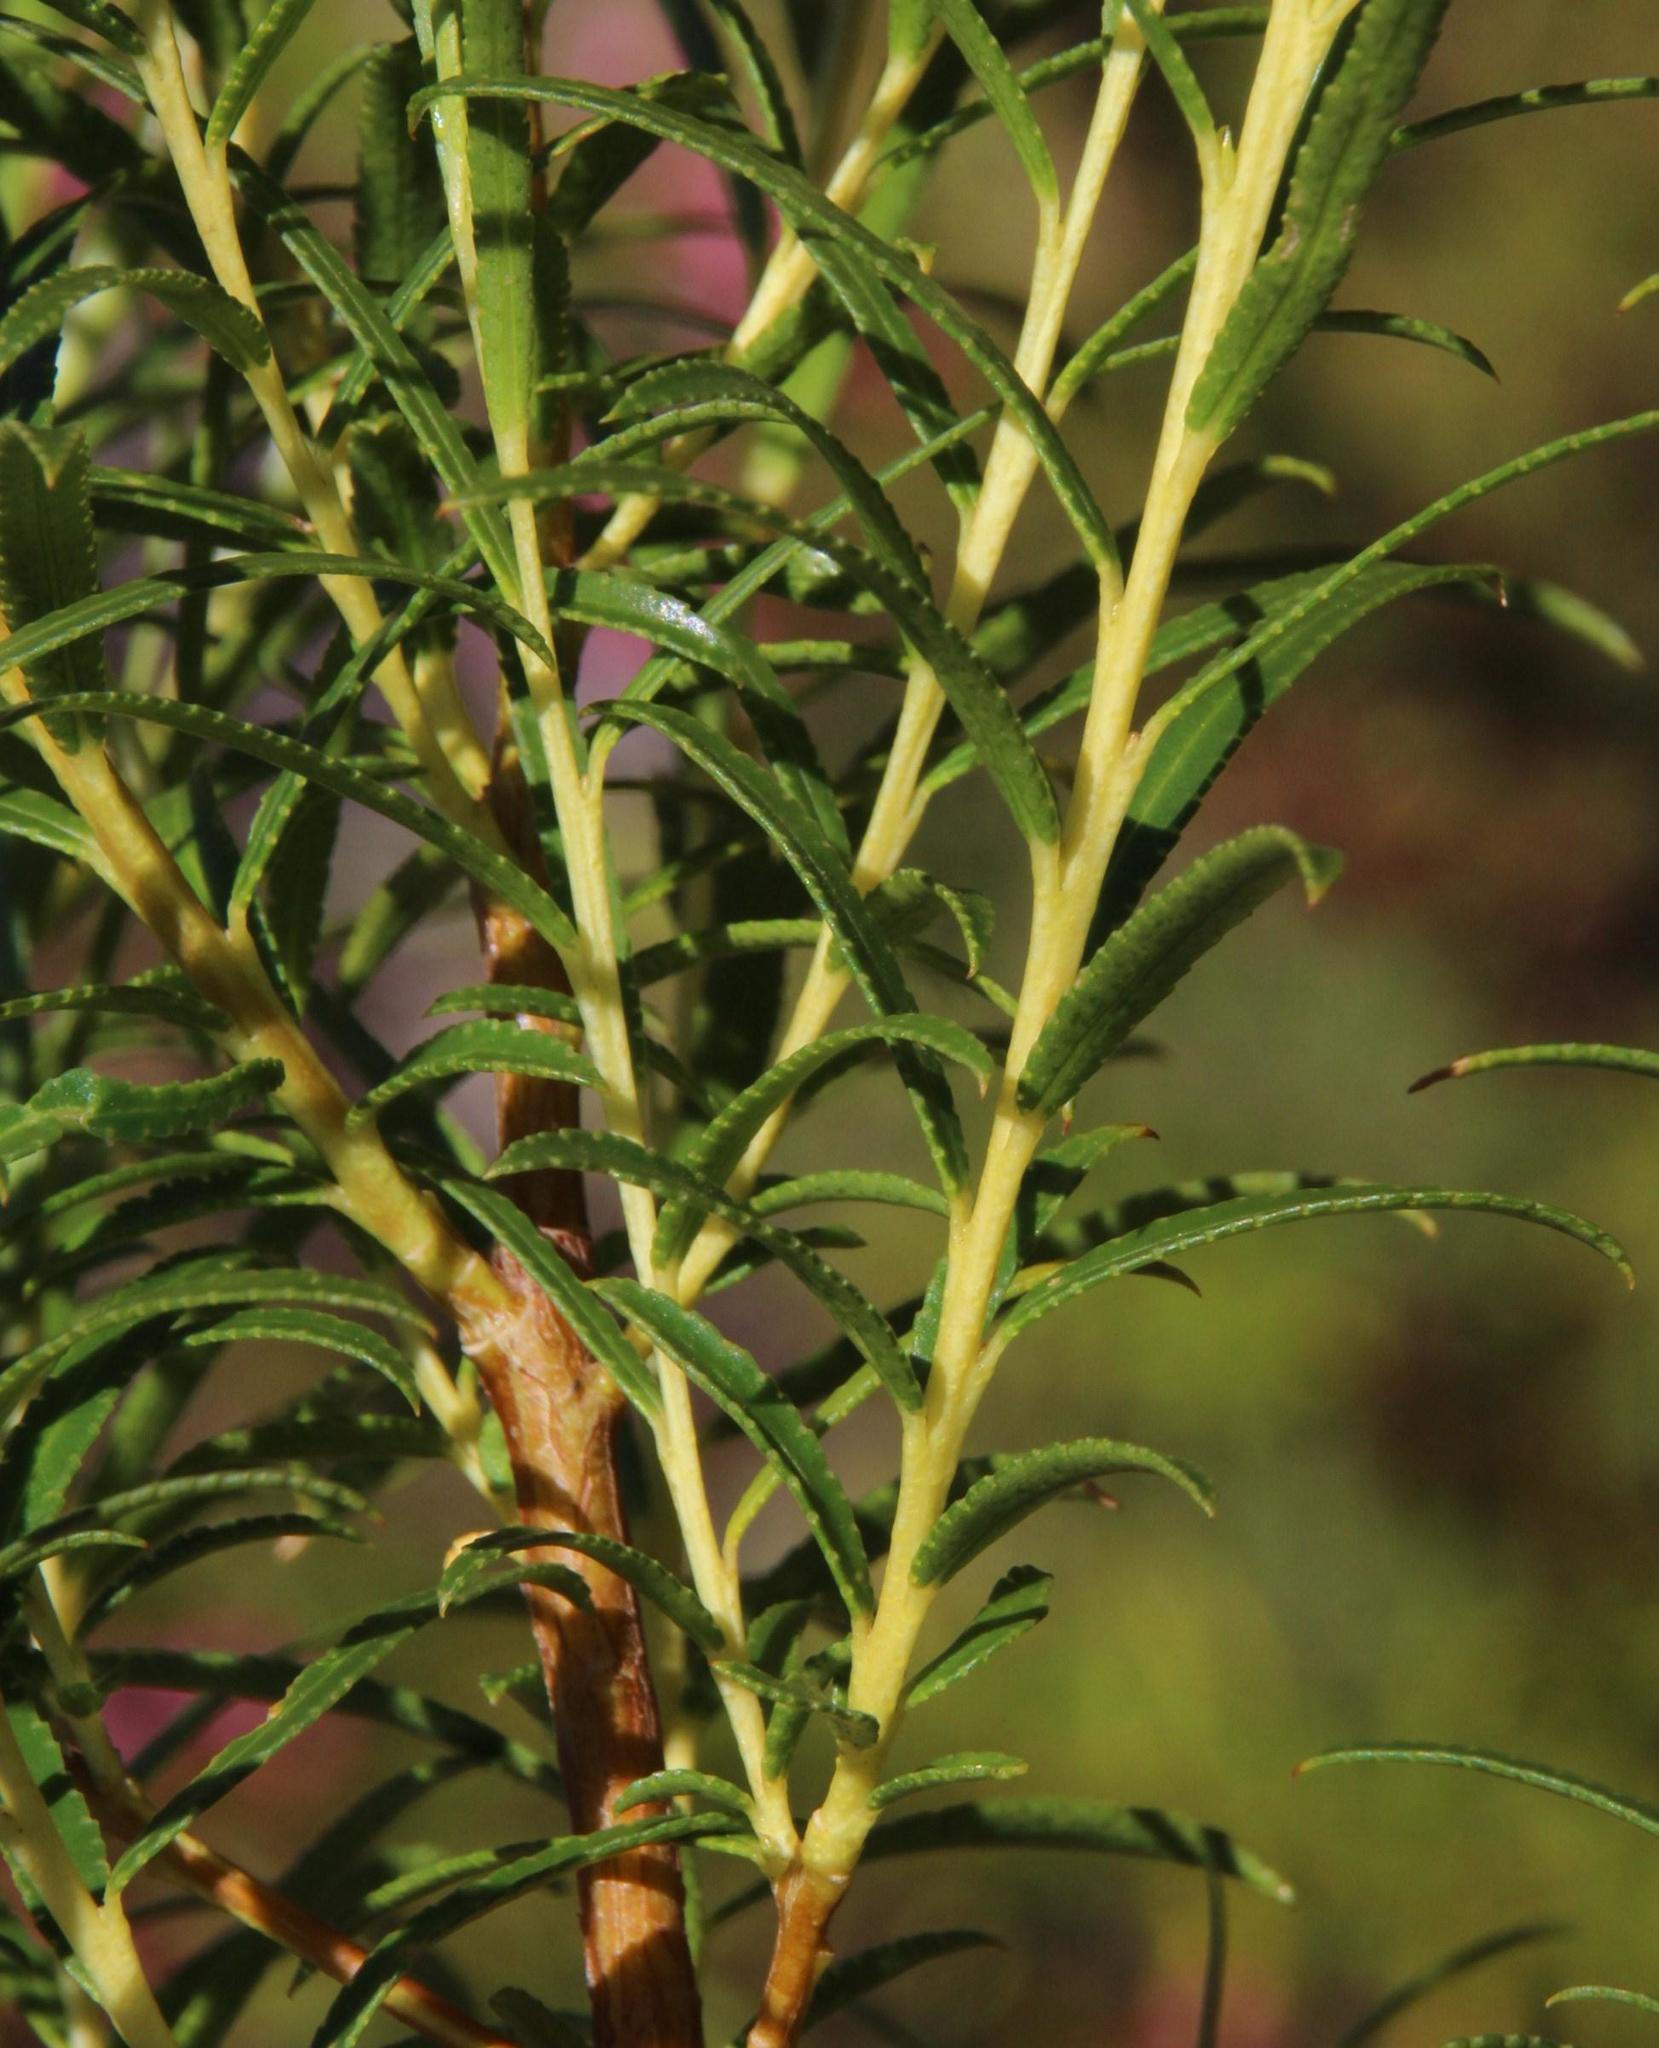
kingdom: Plantae
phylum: Tracheophyta
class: Magnoliopsida
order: Sapindales
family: Rutaceae
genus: Empleurum
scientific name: Empleurum unicapsulare
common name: False buchu
